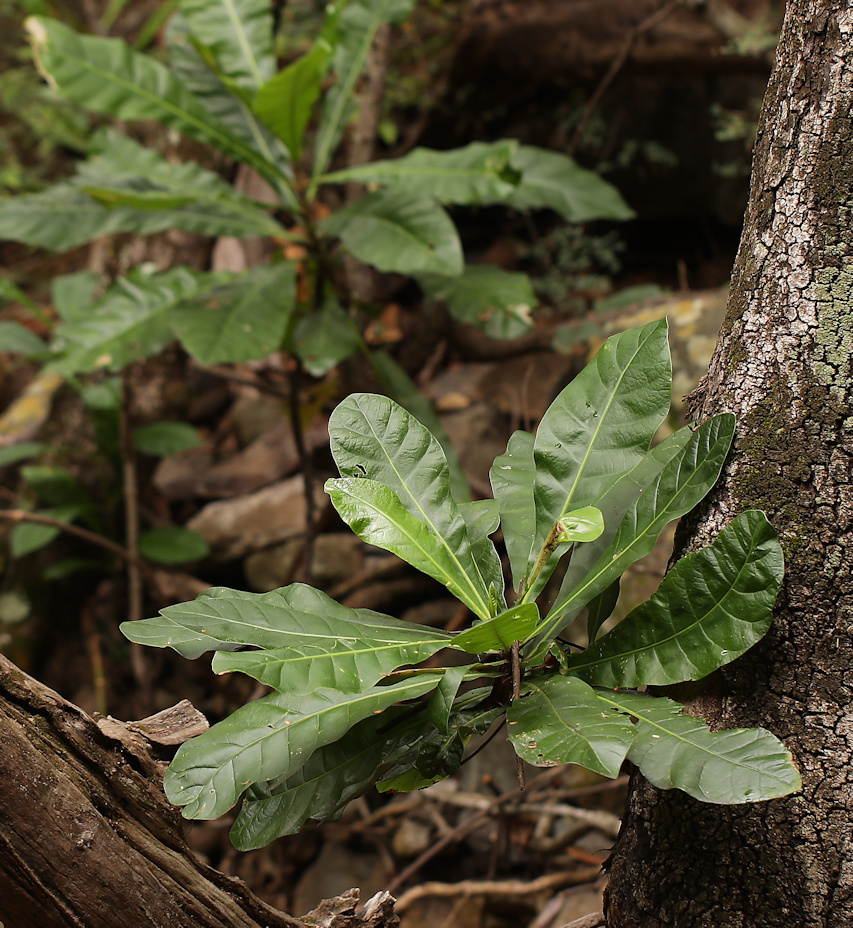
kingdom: Plantae
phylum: Tracheophyta
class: Magnoliopsida
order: Gentianales
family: Gentianaceae
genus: Anthocleista
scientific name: Anthocleista grandiflora
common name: Forest big-leaf
